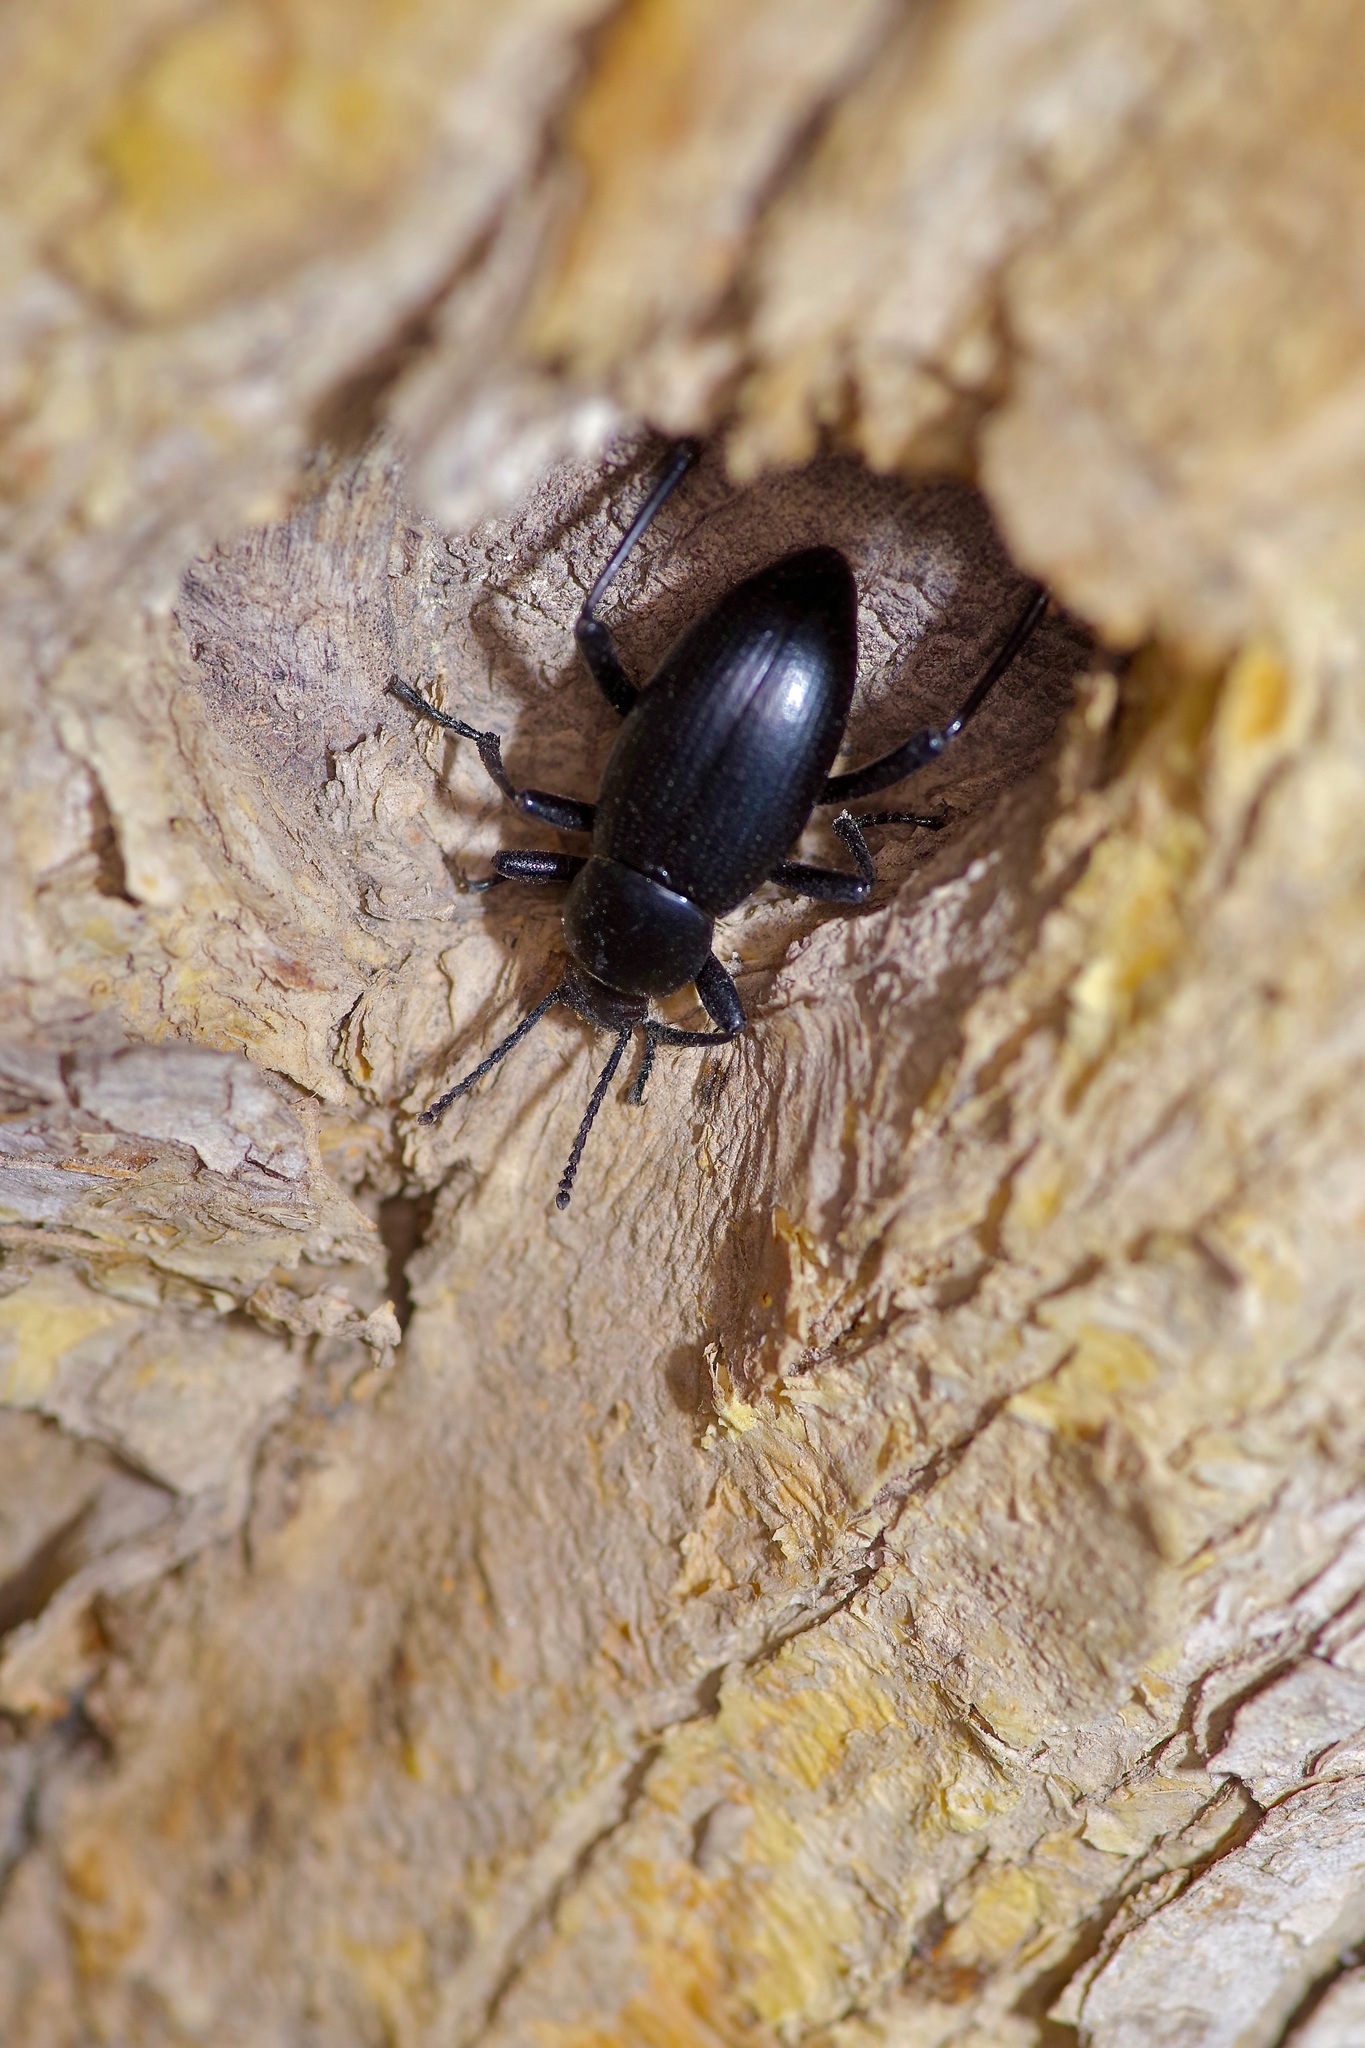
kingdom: Animalia
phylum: Arthropoda
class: Insecta
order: Coleoptera
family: Tenebrionidae
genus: Eleodes
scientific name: Eleodes carbonaria
